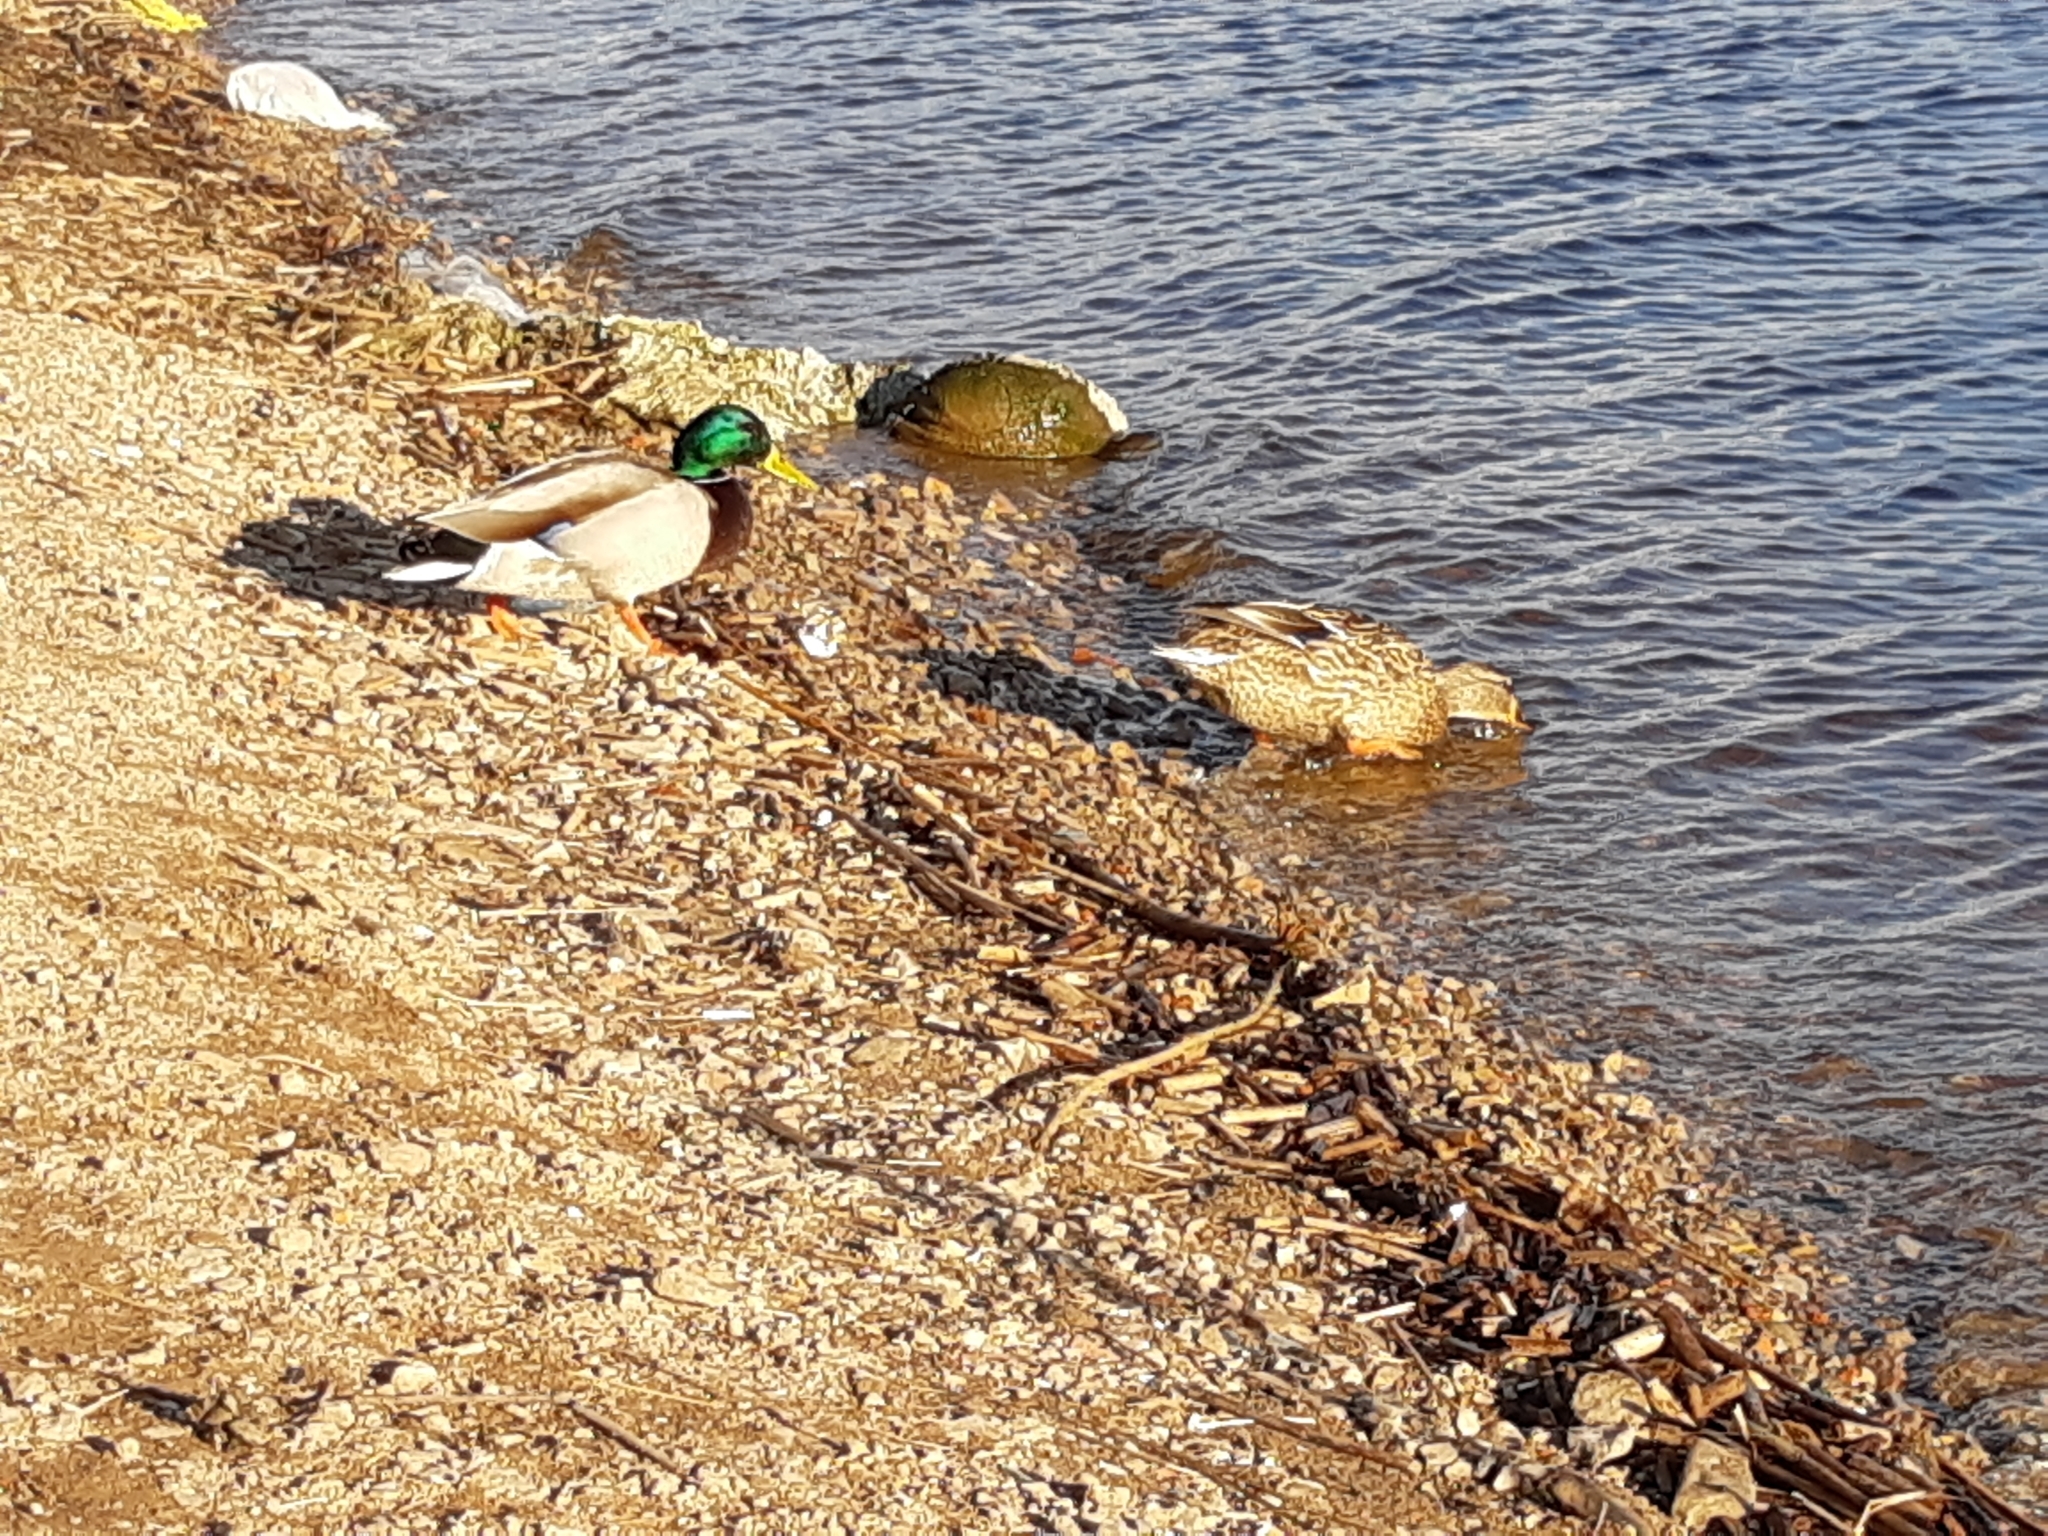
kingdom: Animalia
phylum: Chordata
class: Aves
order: Anseriformes
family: Anatidae
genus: Anas
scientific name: Anas platyrhynchos
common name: Mallard
